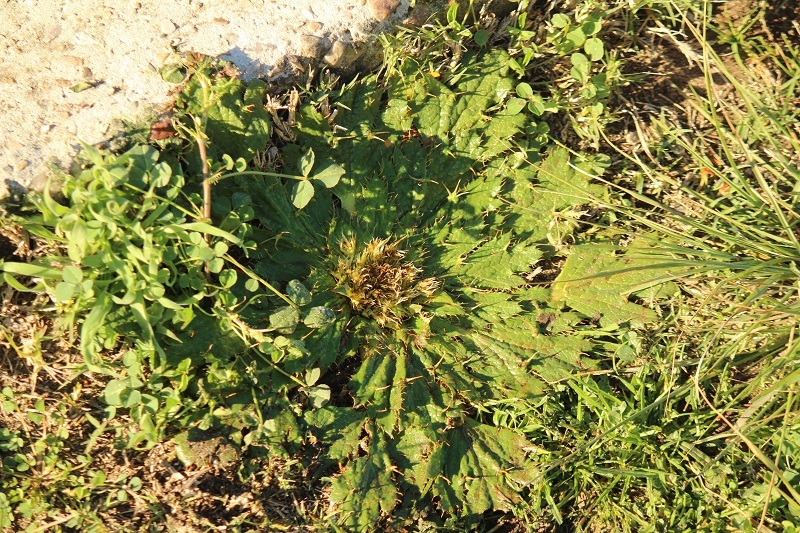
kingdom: Plantae
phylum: Tracheophyta
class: Magnoliopsida
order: Apiales
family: Apiaceae
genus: Arctopus
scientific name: Arctopus echinatus
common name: Platdoring
